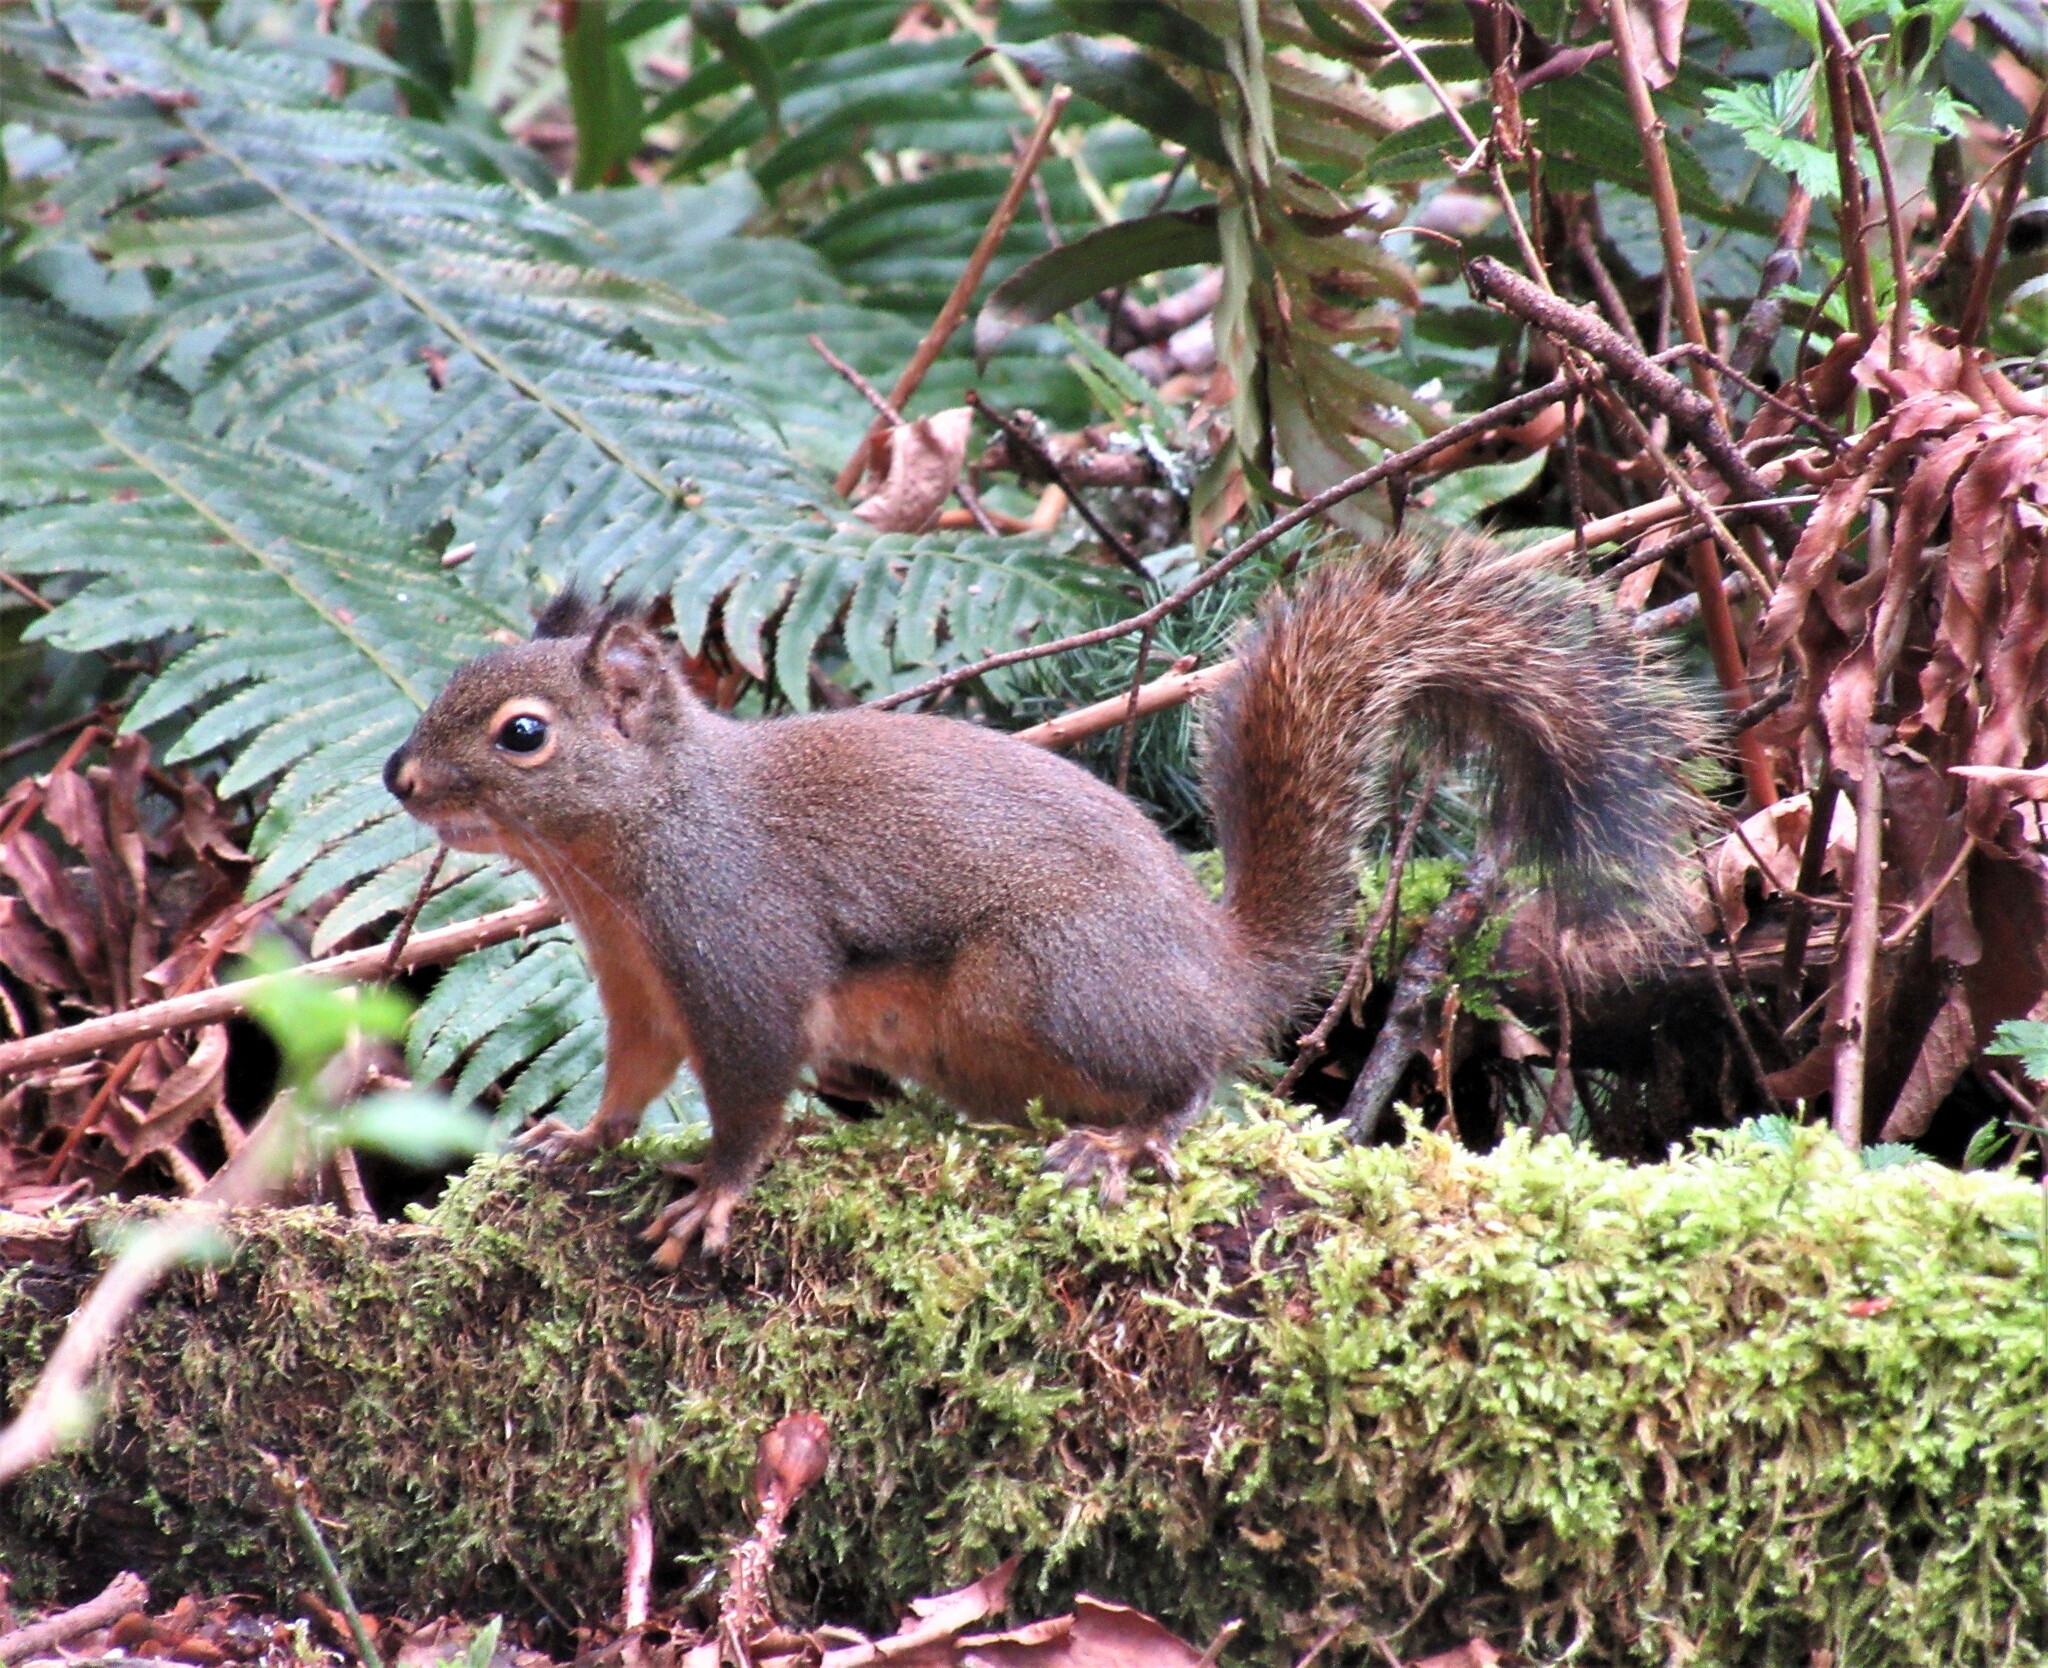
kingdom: Animalia
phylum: Chordata
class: Mammalia
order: Rodentia
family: Sciuridae
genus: Tamiasciurus
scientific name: Tamiasciurus douglasii
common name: Douglas's squirrel
